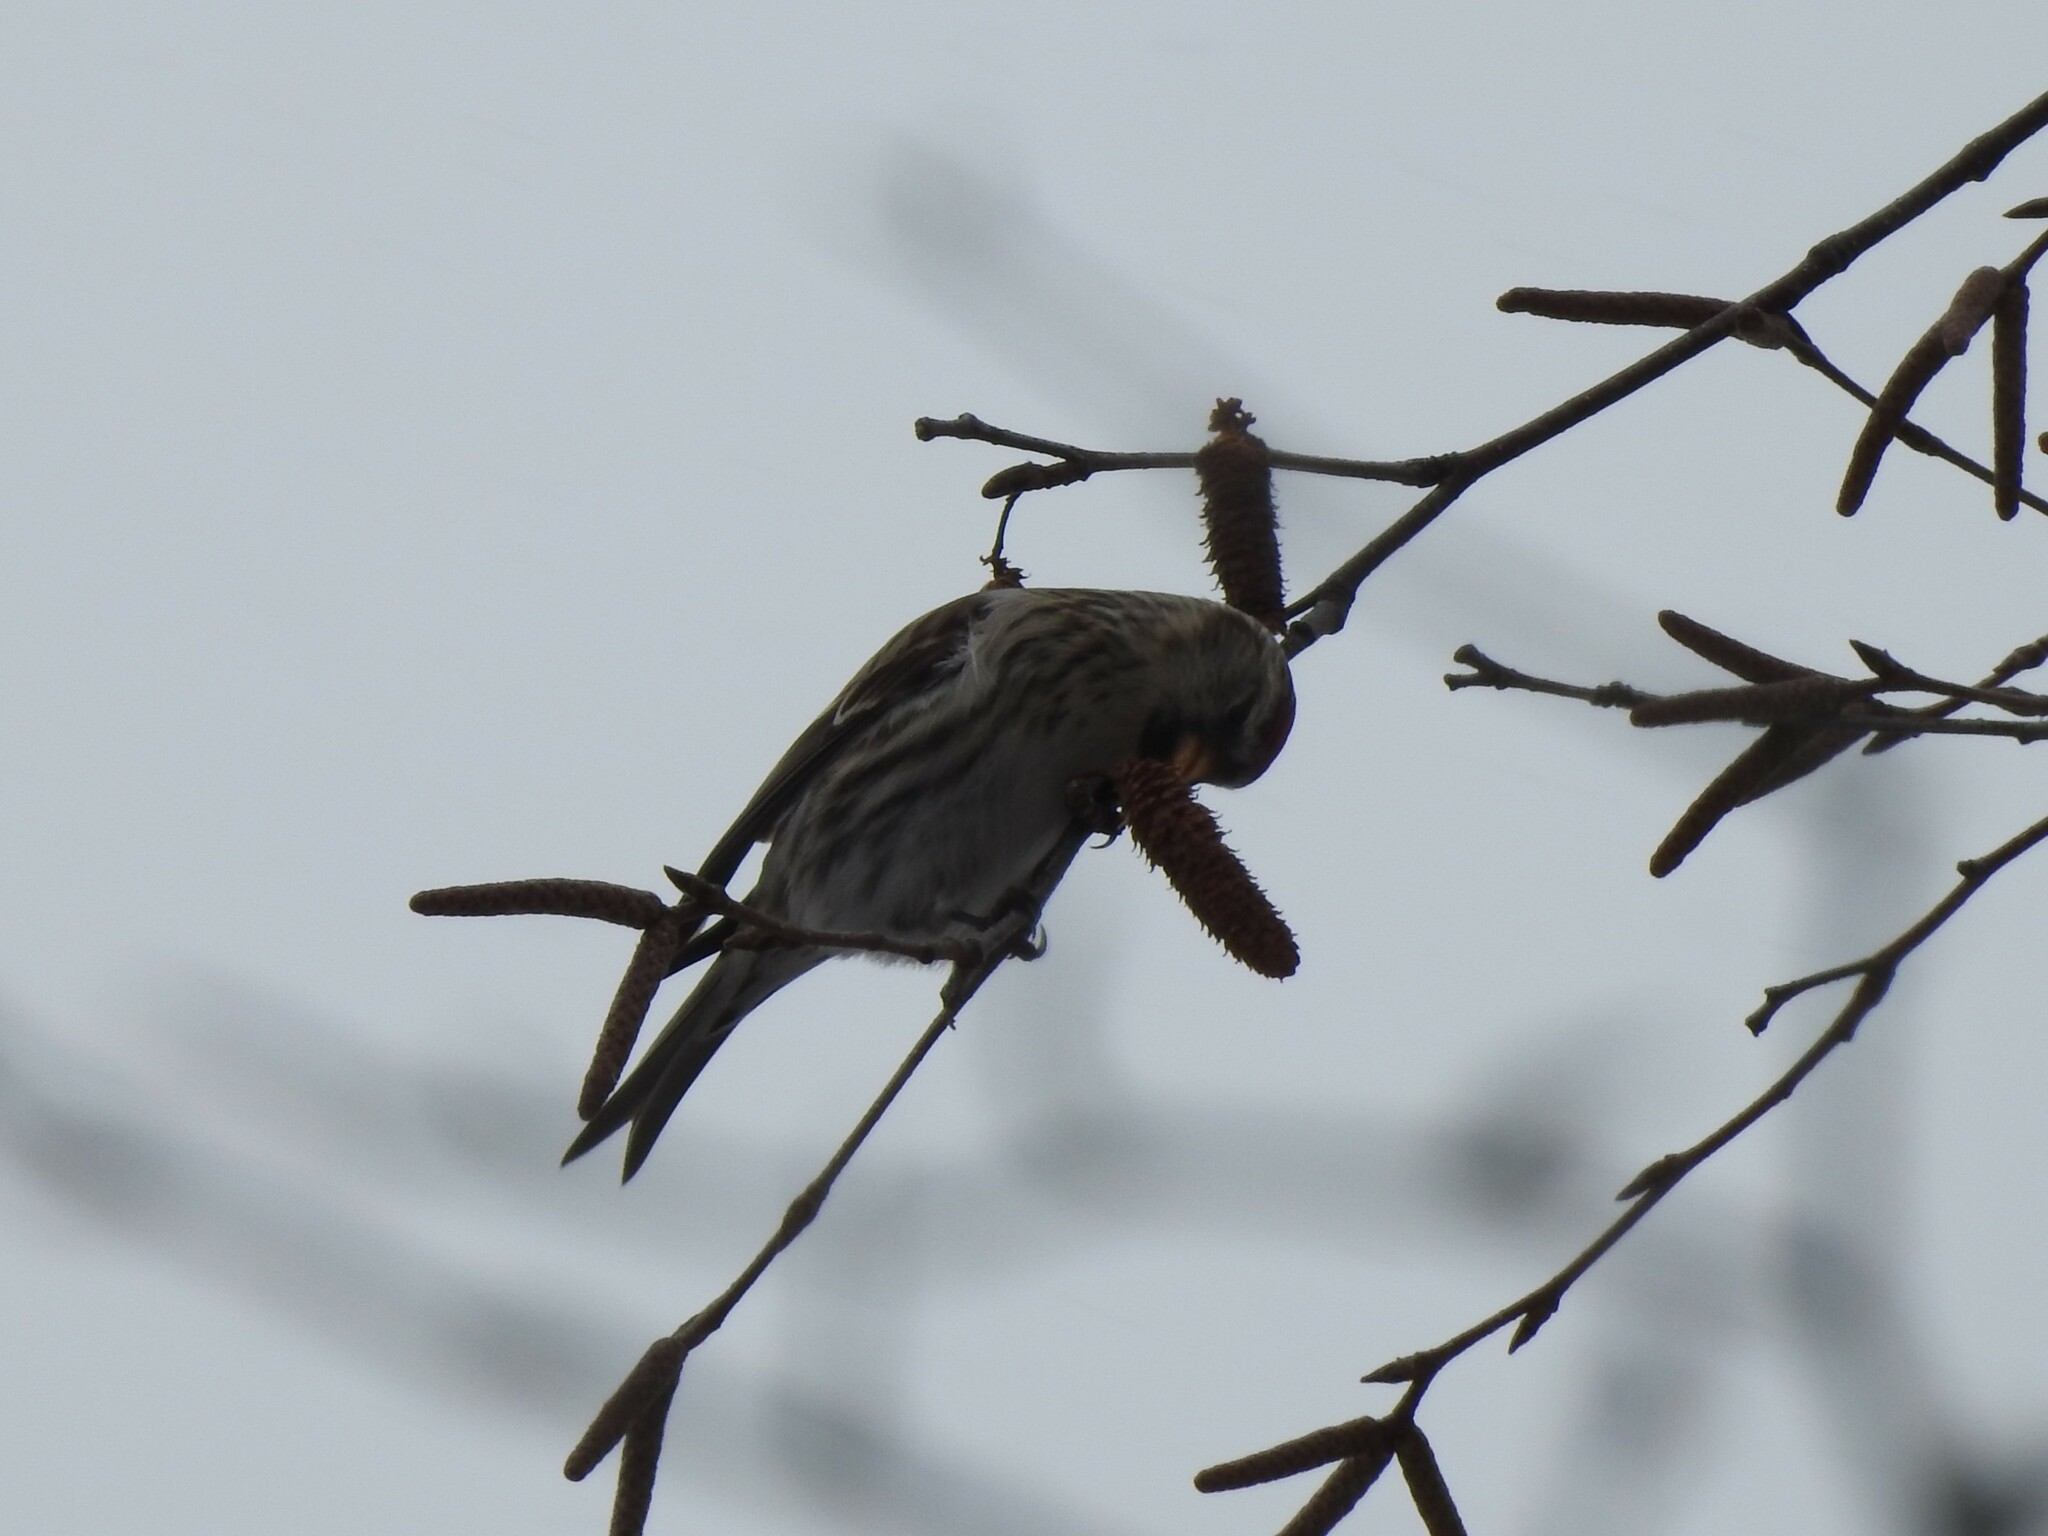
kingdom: Animalia
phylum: Chordata
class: Aves
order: Passeriformes
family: Fringillidae
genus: Acanthis
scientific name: Acanthis flammea
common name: Common redpoll
